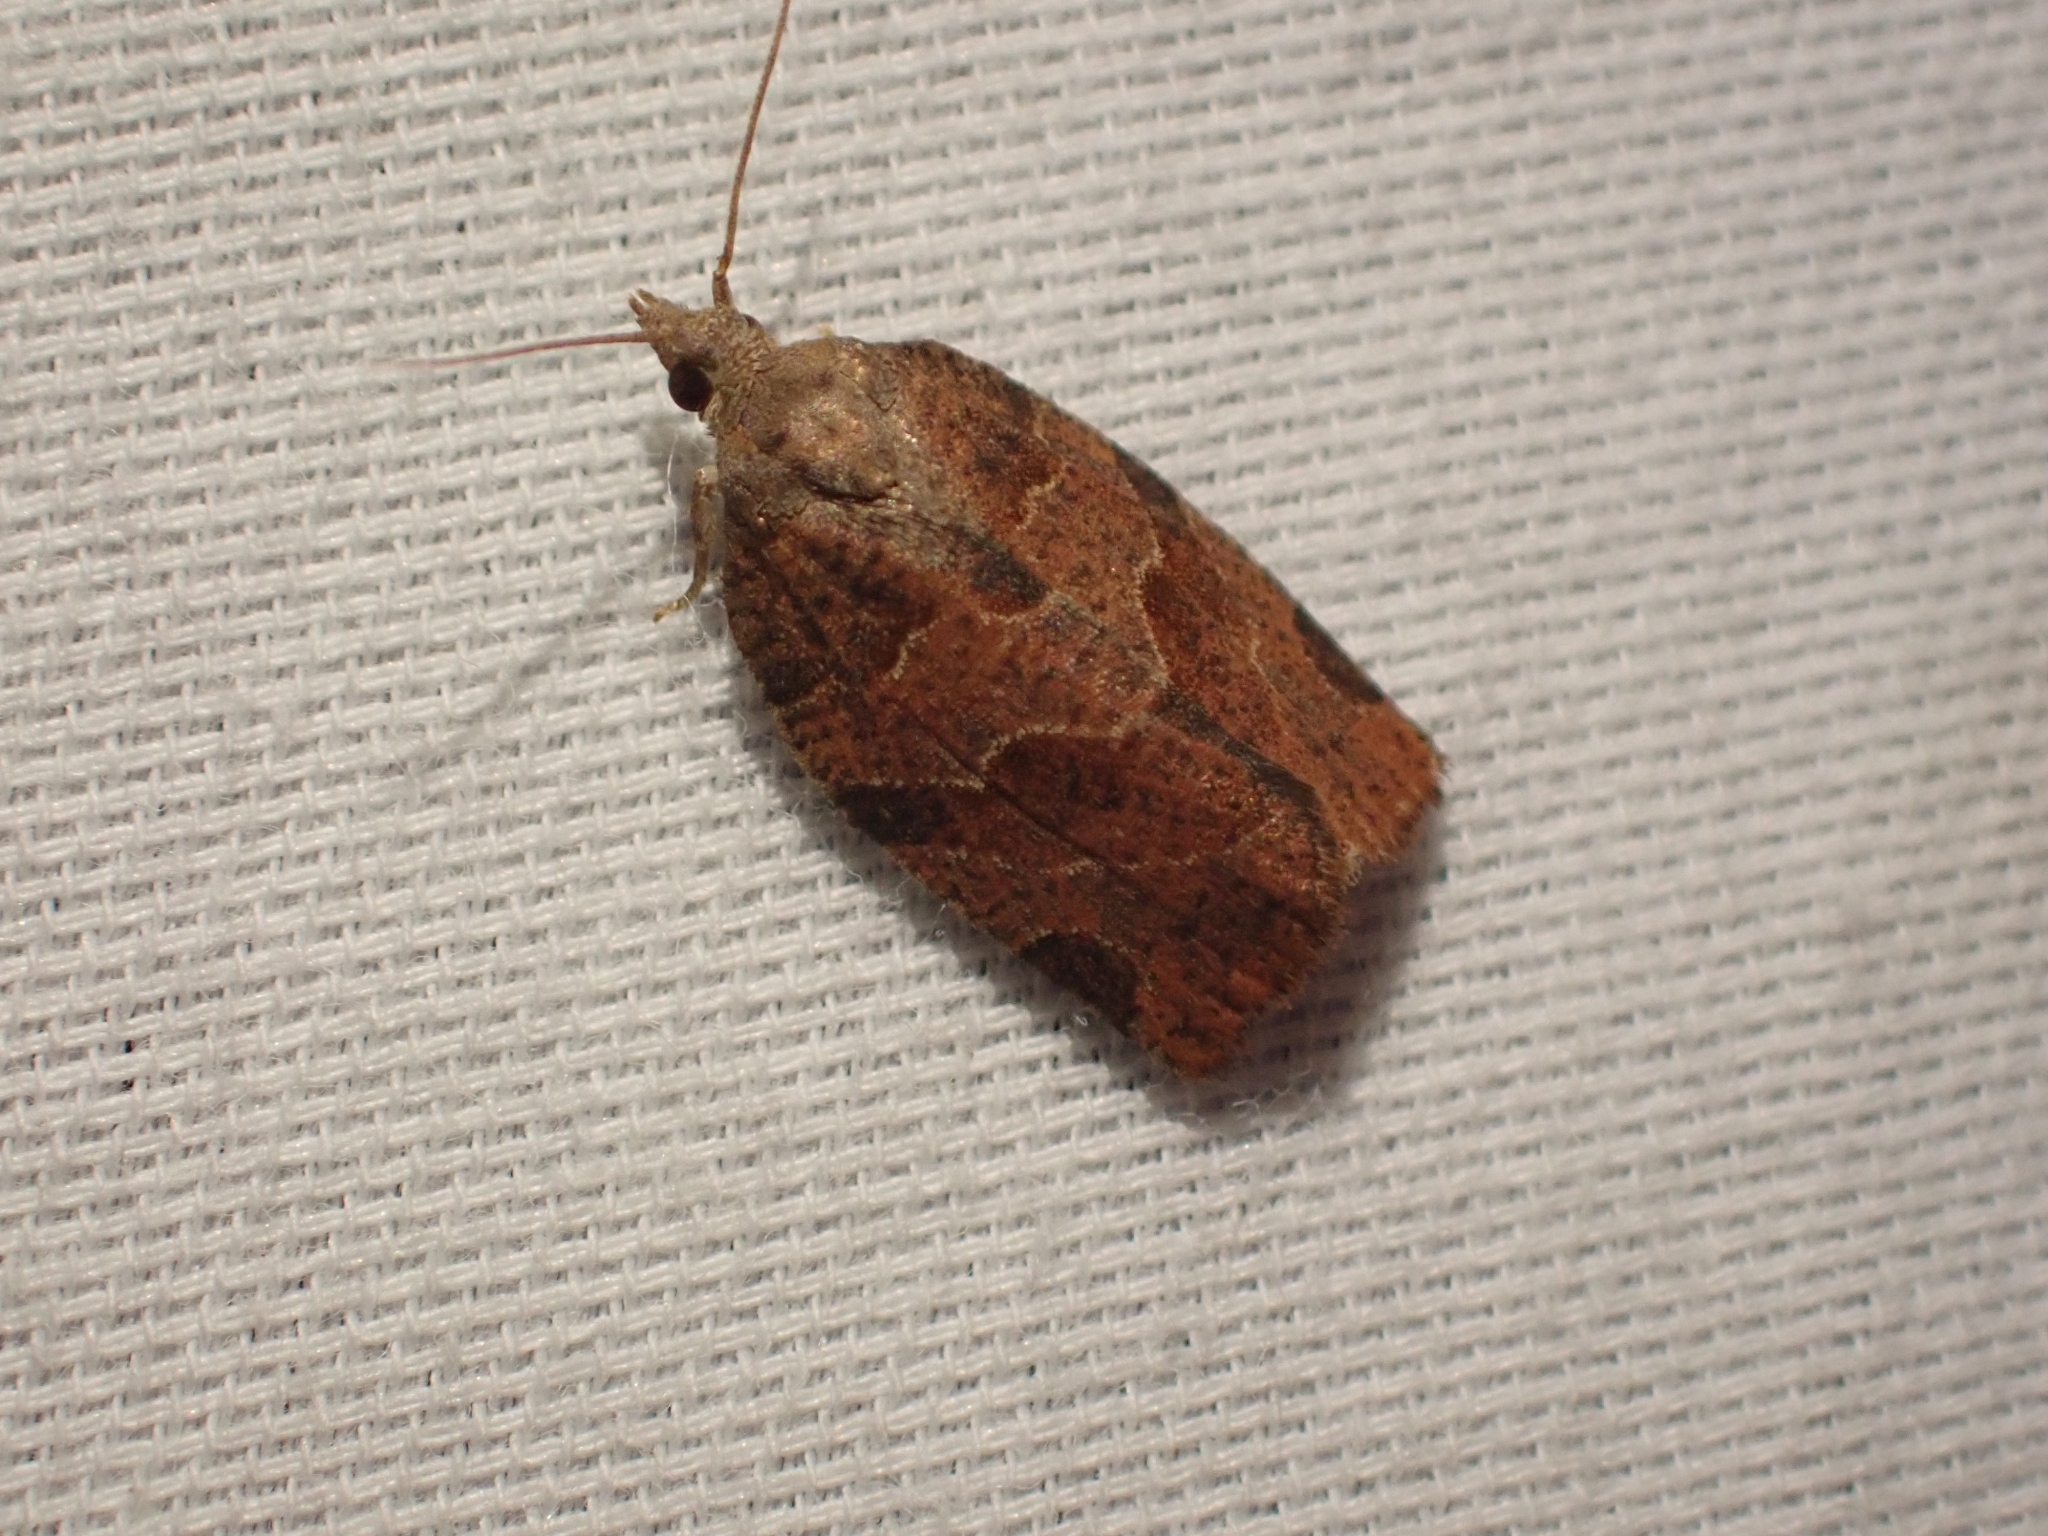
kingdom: Animalia
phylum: Arthropoda
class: Insecta
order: Lepidoptera
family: Tortricidae
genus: Pandemis
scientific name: Pandemis canadana
